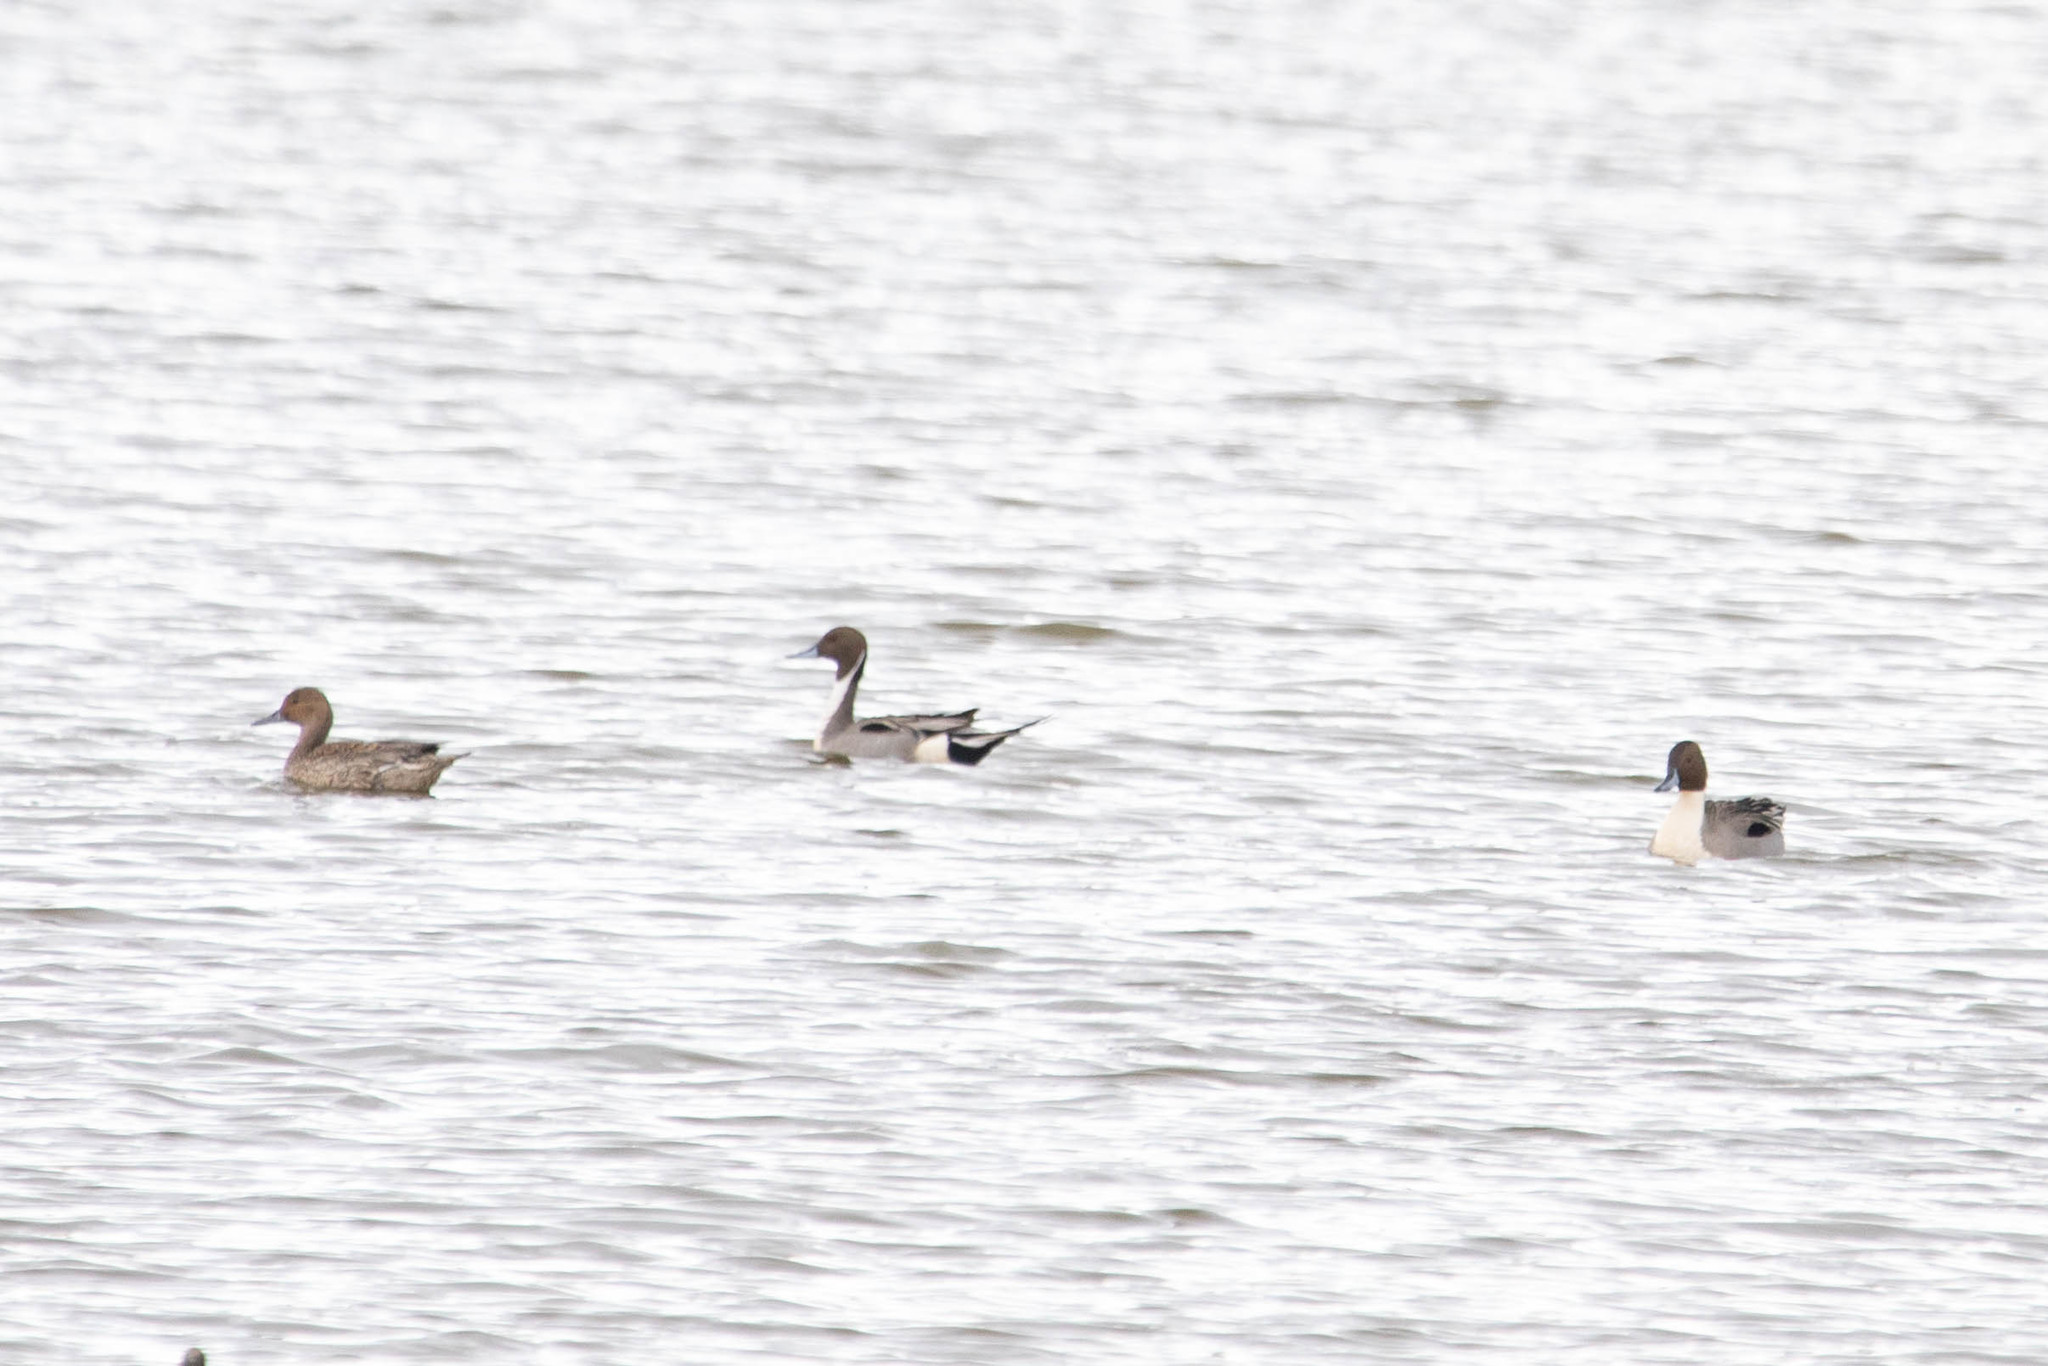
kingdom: Animalia
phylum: Chordata
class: Aves
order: Anseriformes
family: Anatidae
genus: Anas
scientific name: Anas acuta
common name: Northern pintail
